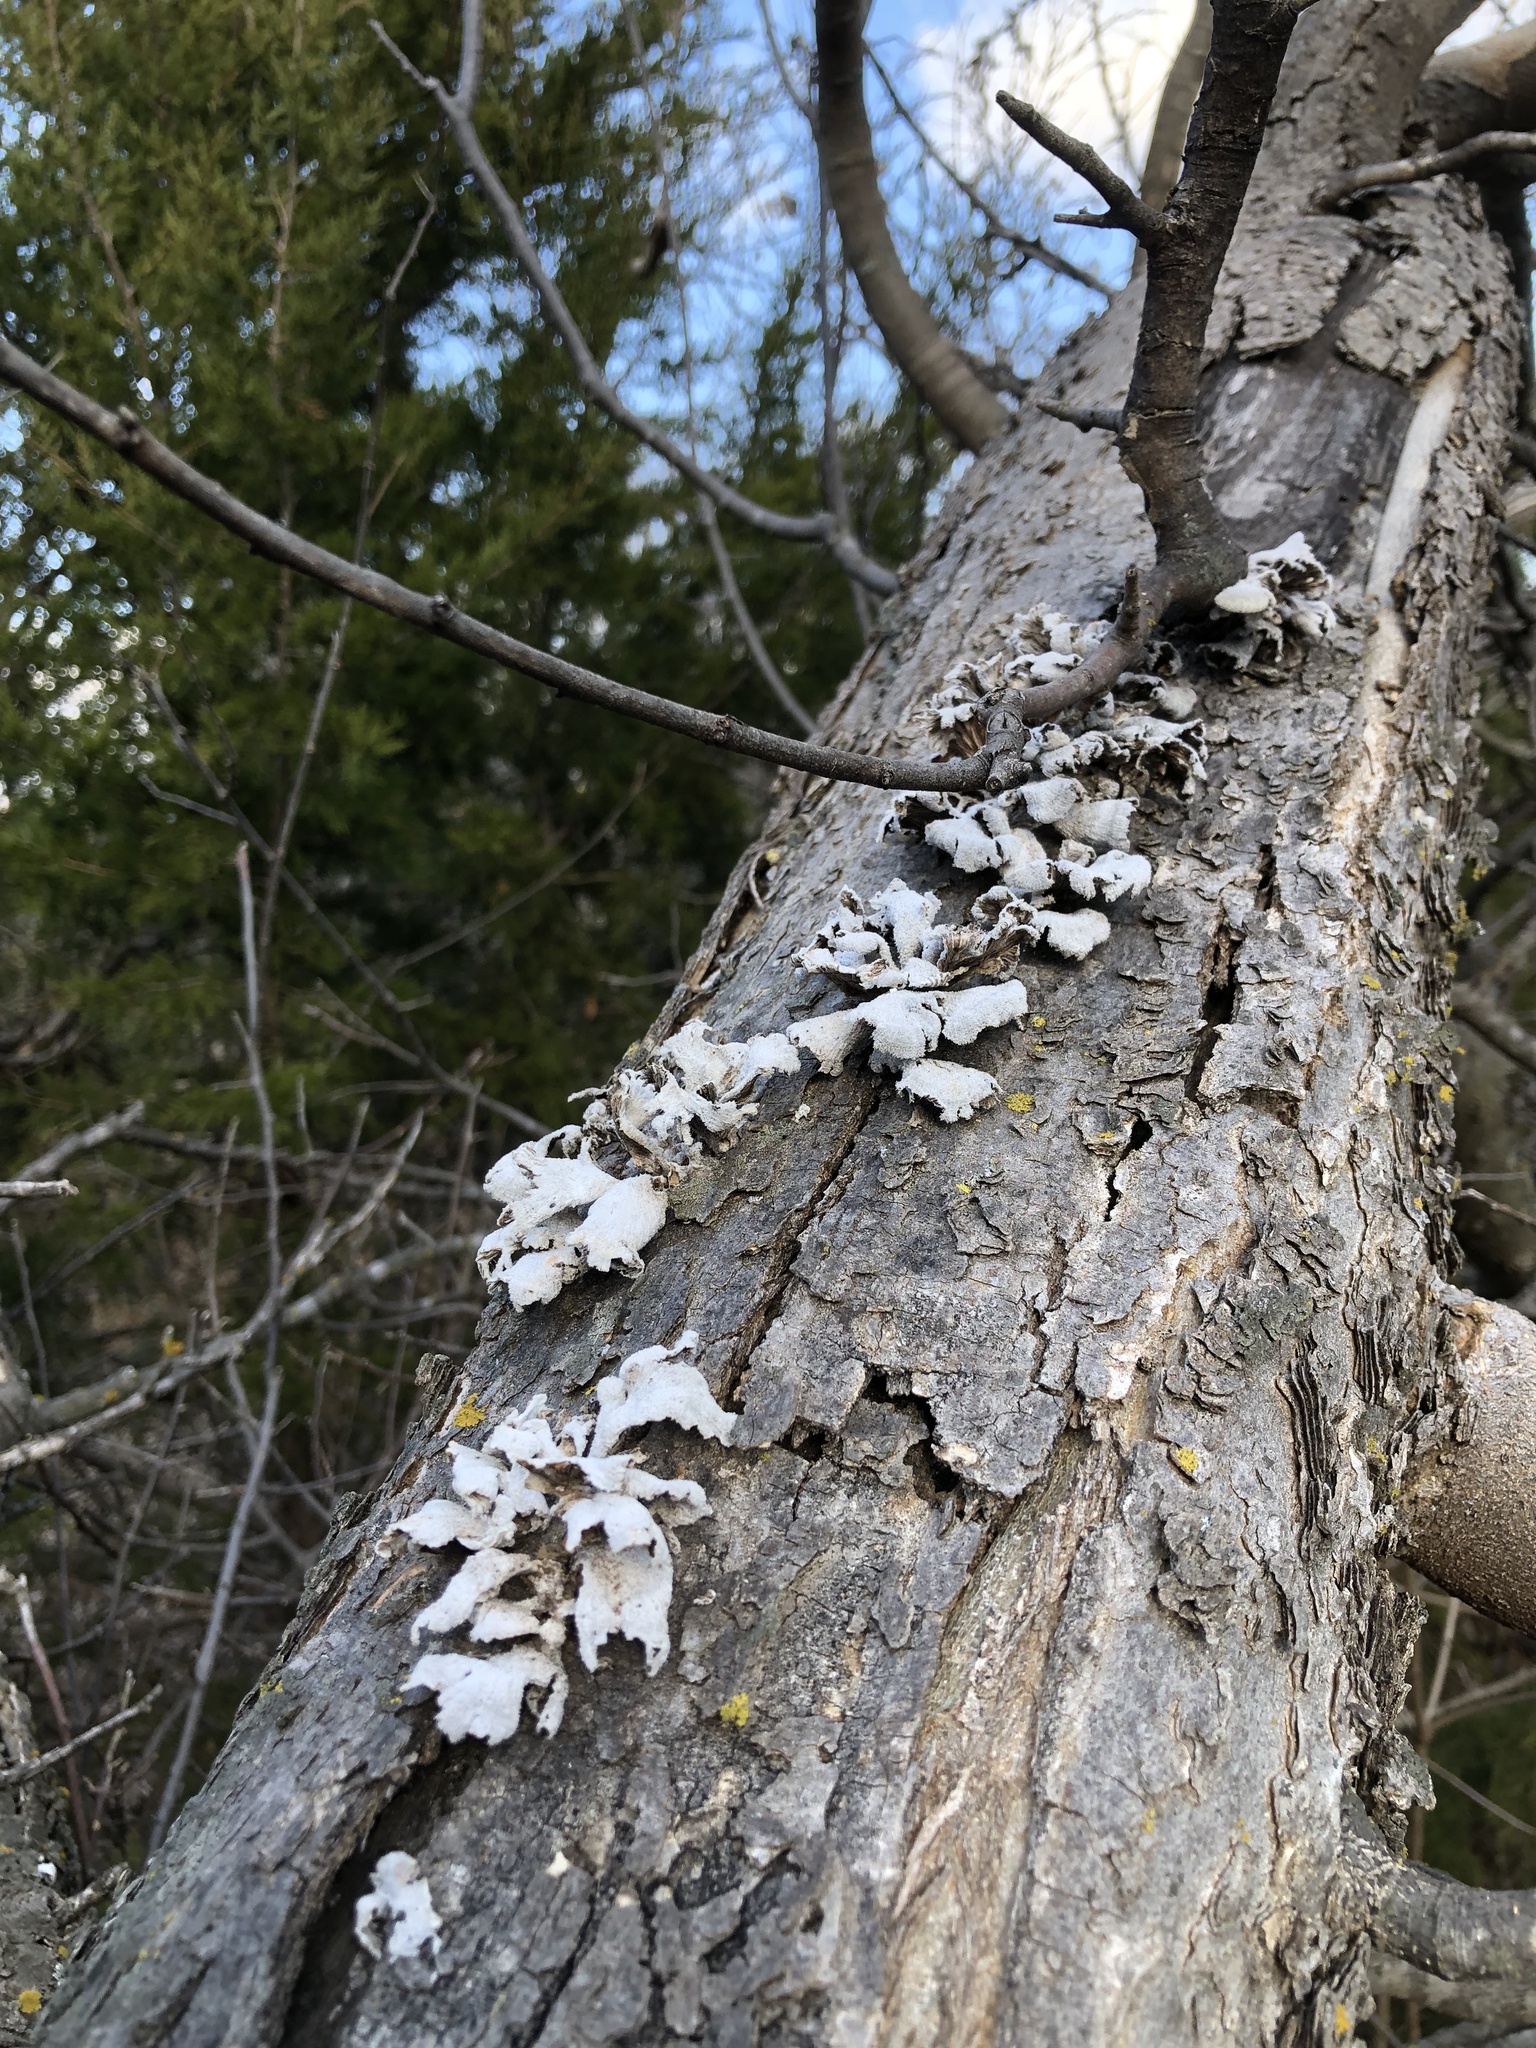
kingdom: Fungi
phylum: Basidiomycota
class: Agaricomycetes
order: Agaricales
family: Schizophyllaceae
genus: Schizophyllum
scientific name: Schizophyllum commune
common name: Common porecrust
